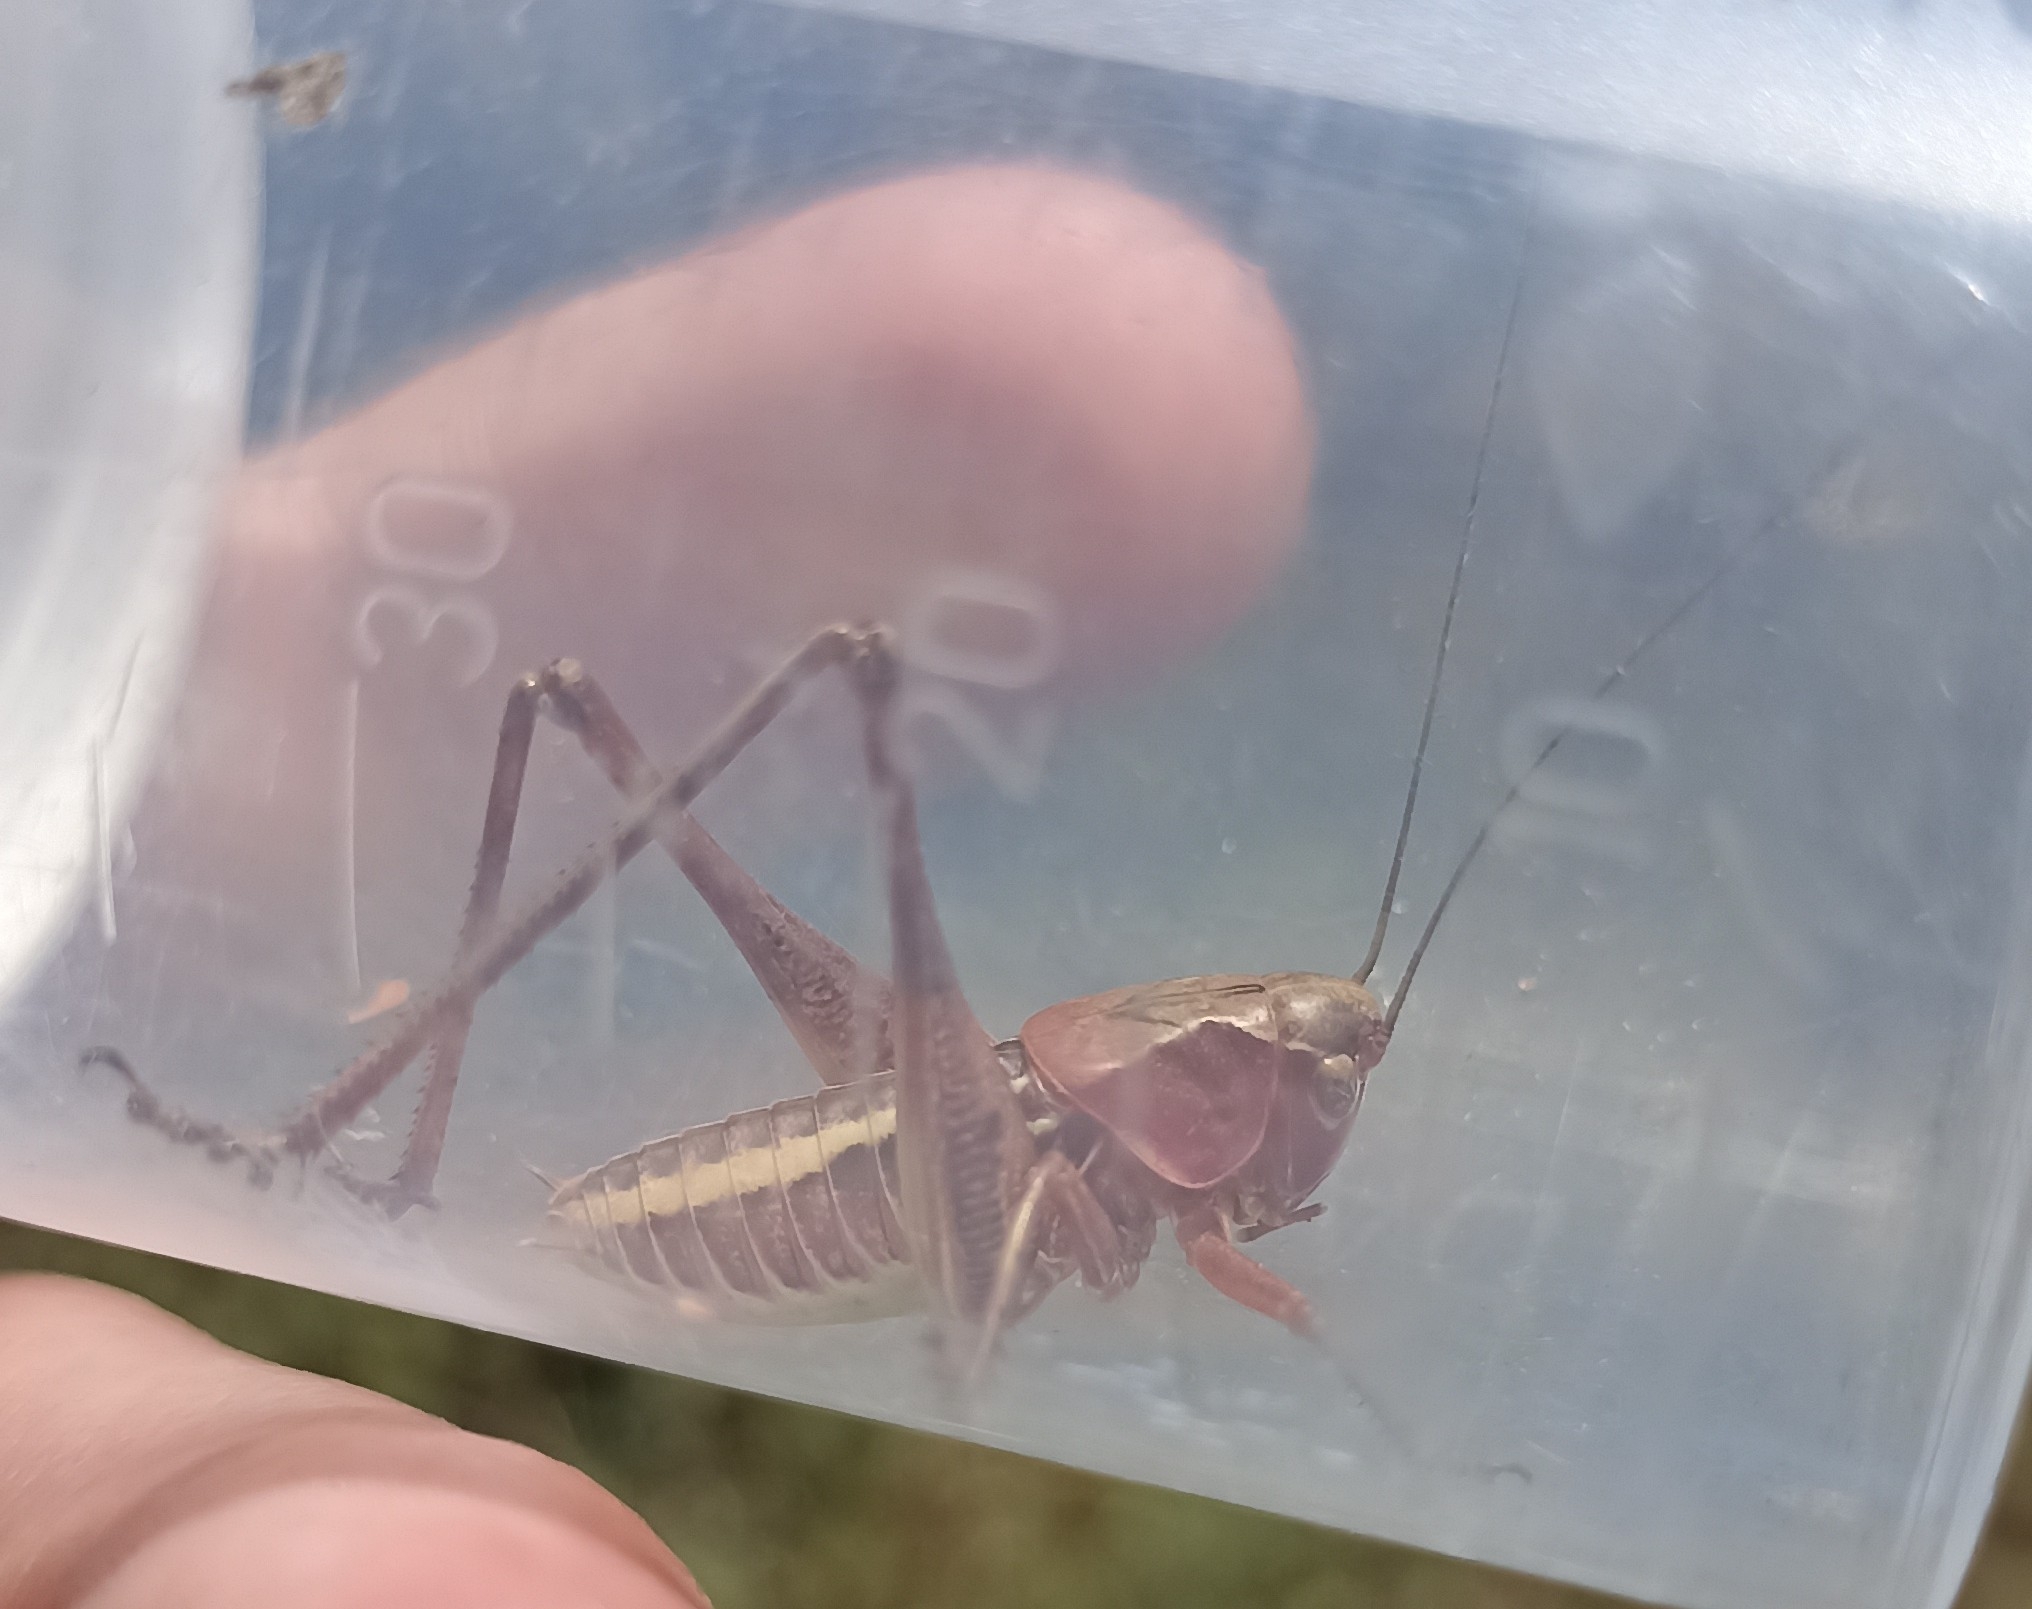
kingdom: Animalia
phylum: Arthropoda
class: Insecta
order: Orthoptera
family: Tettigoniidae
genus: Decticus
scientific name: Decticus albifrons
